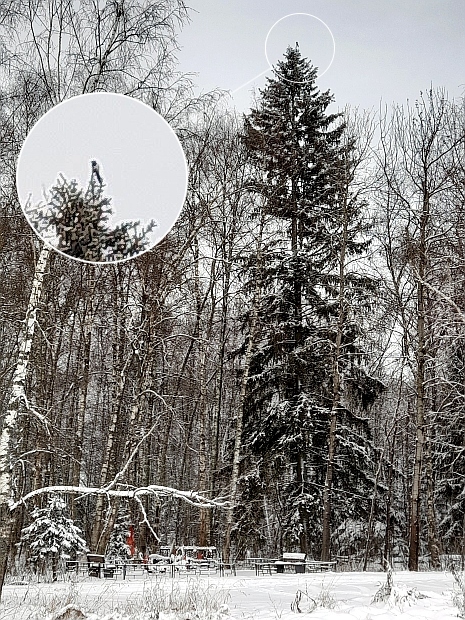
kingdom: Animalia
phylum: Chordata
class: Aves
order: Passeriformes
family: Corvidae
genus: Pica
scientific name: Pica pica
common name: Eurasian magpie
